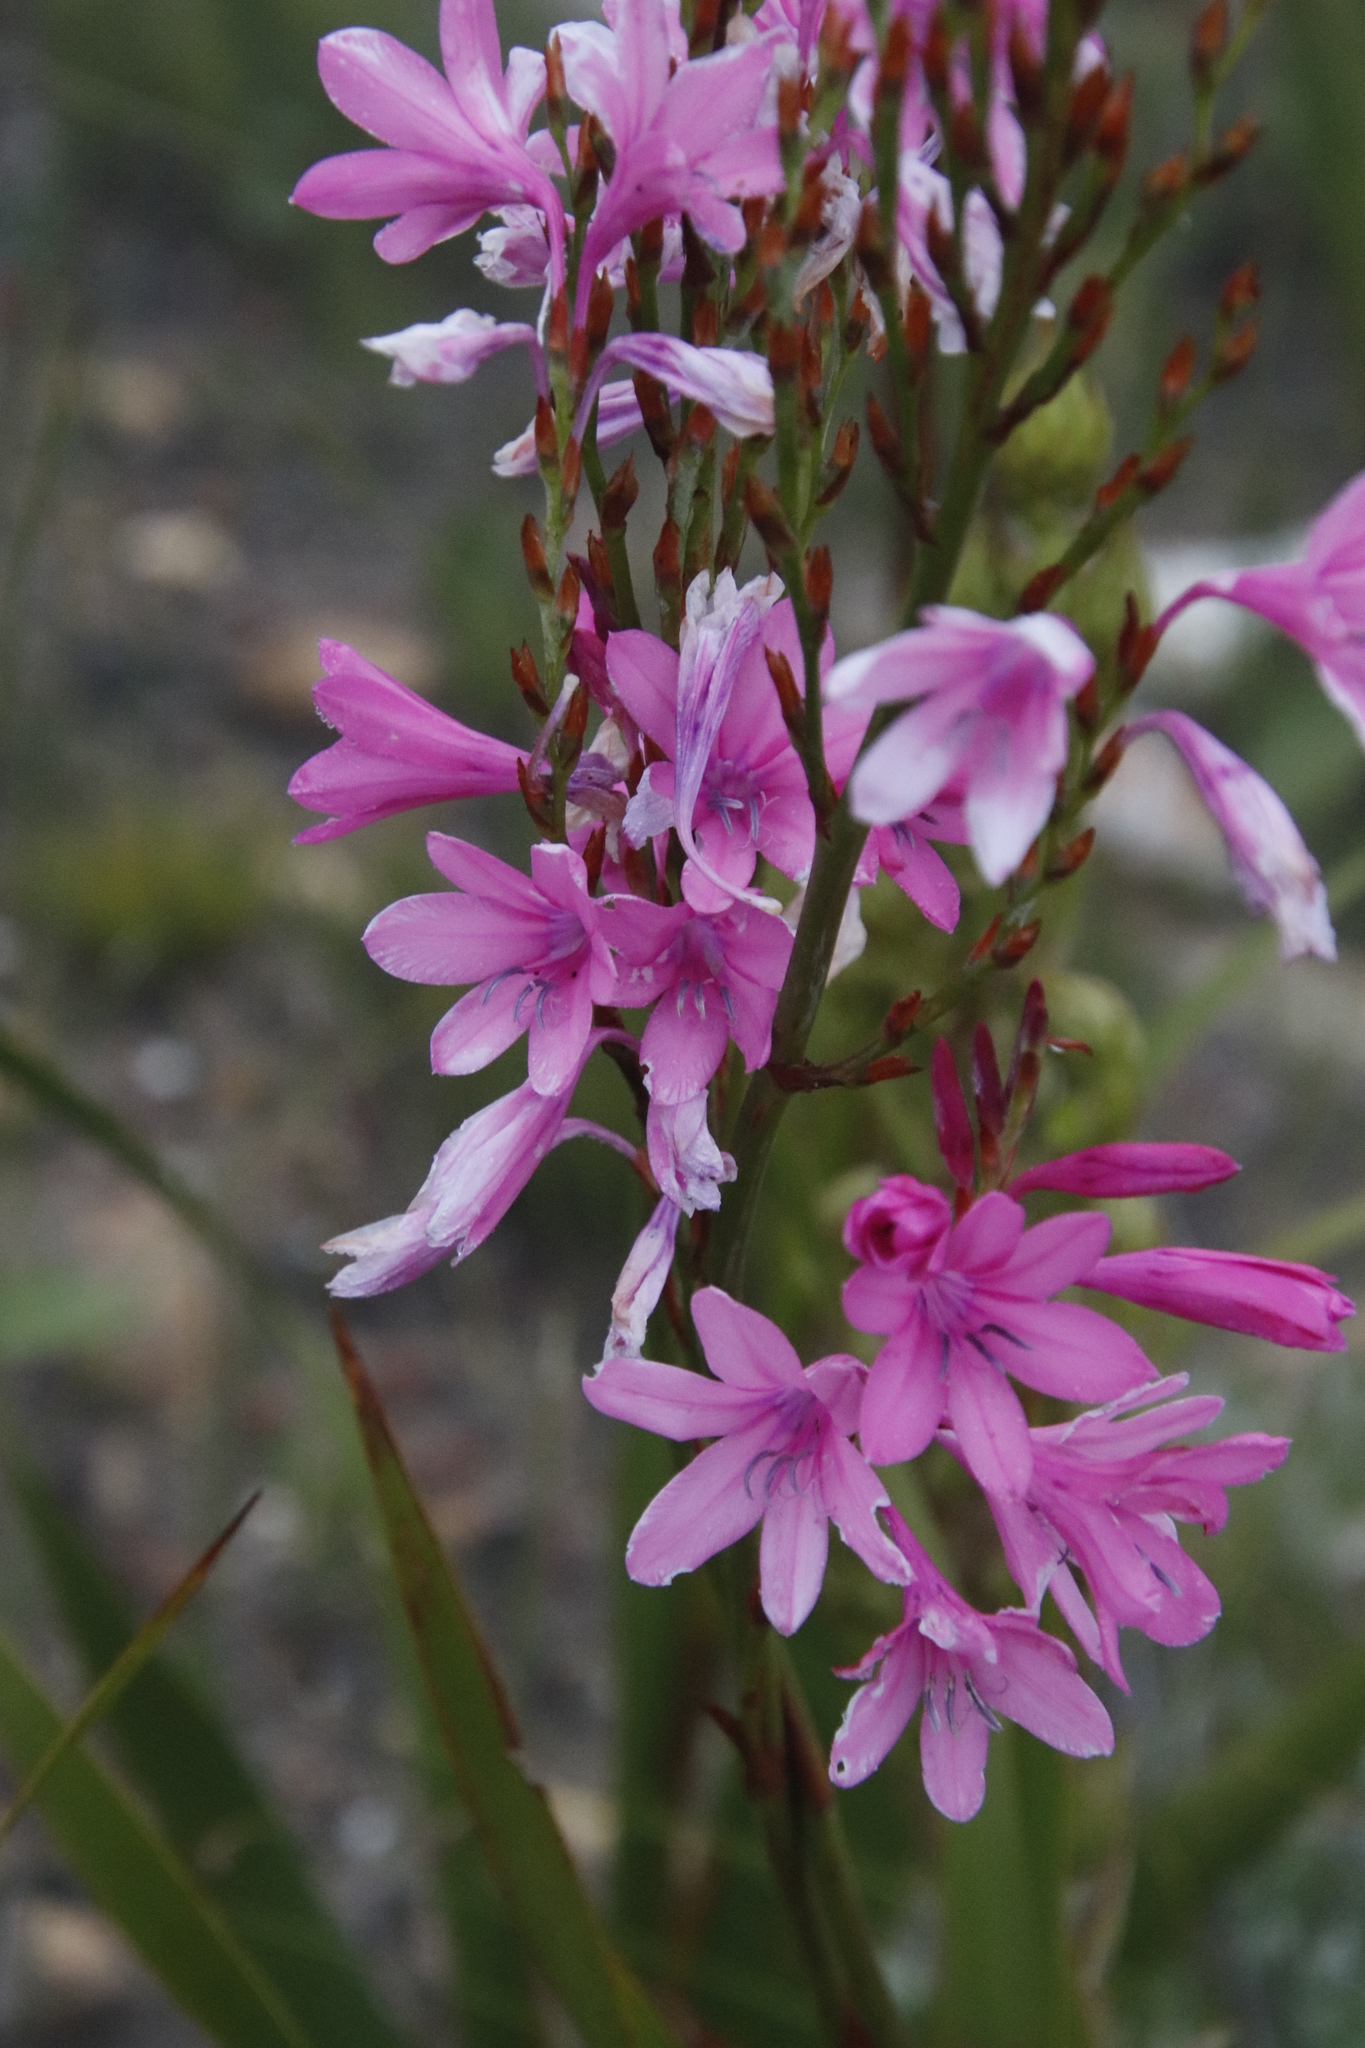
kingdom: Plantae
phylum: Tracheophyta
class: Liliopsida
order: Asparagales
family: Iridaceae
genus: Watsonia
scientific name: Watsonia borbonica
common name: Bugle-lily
